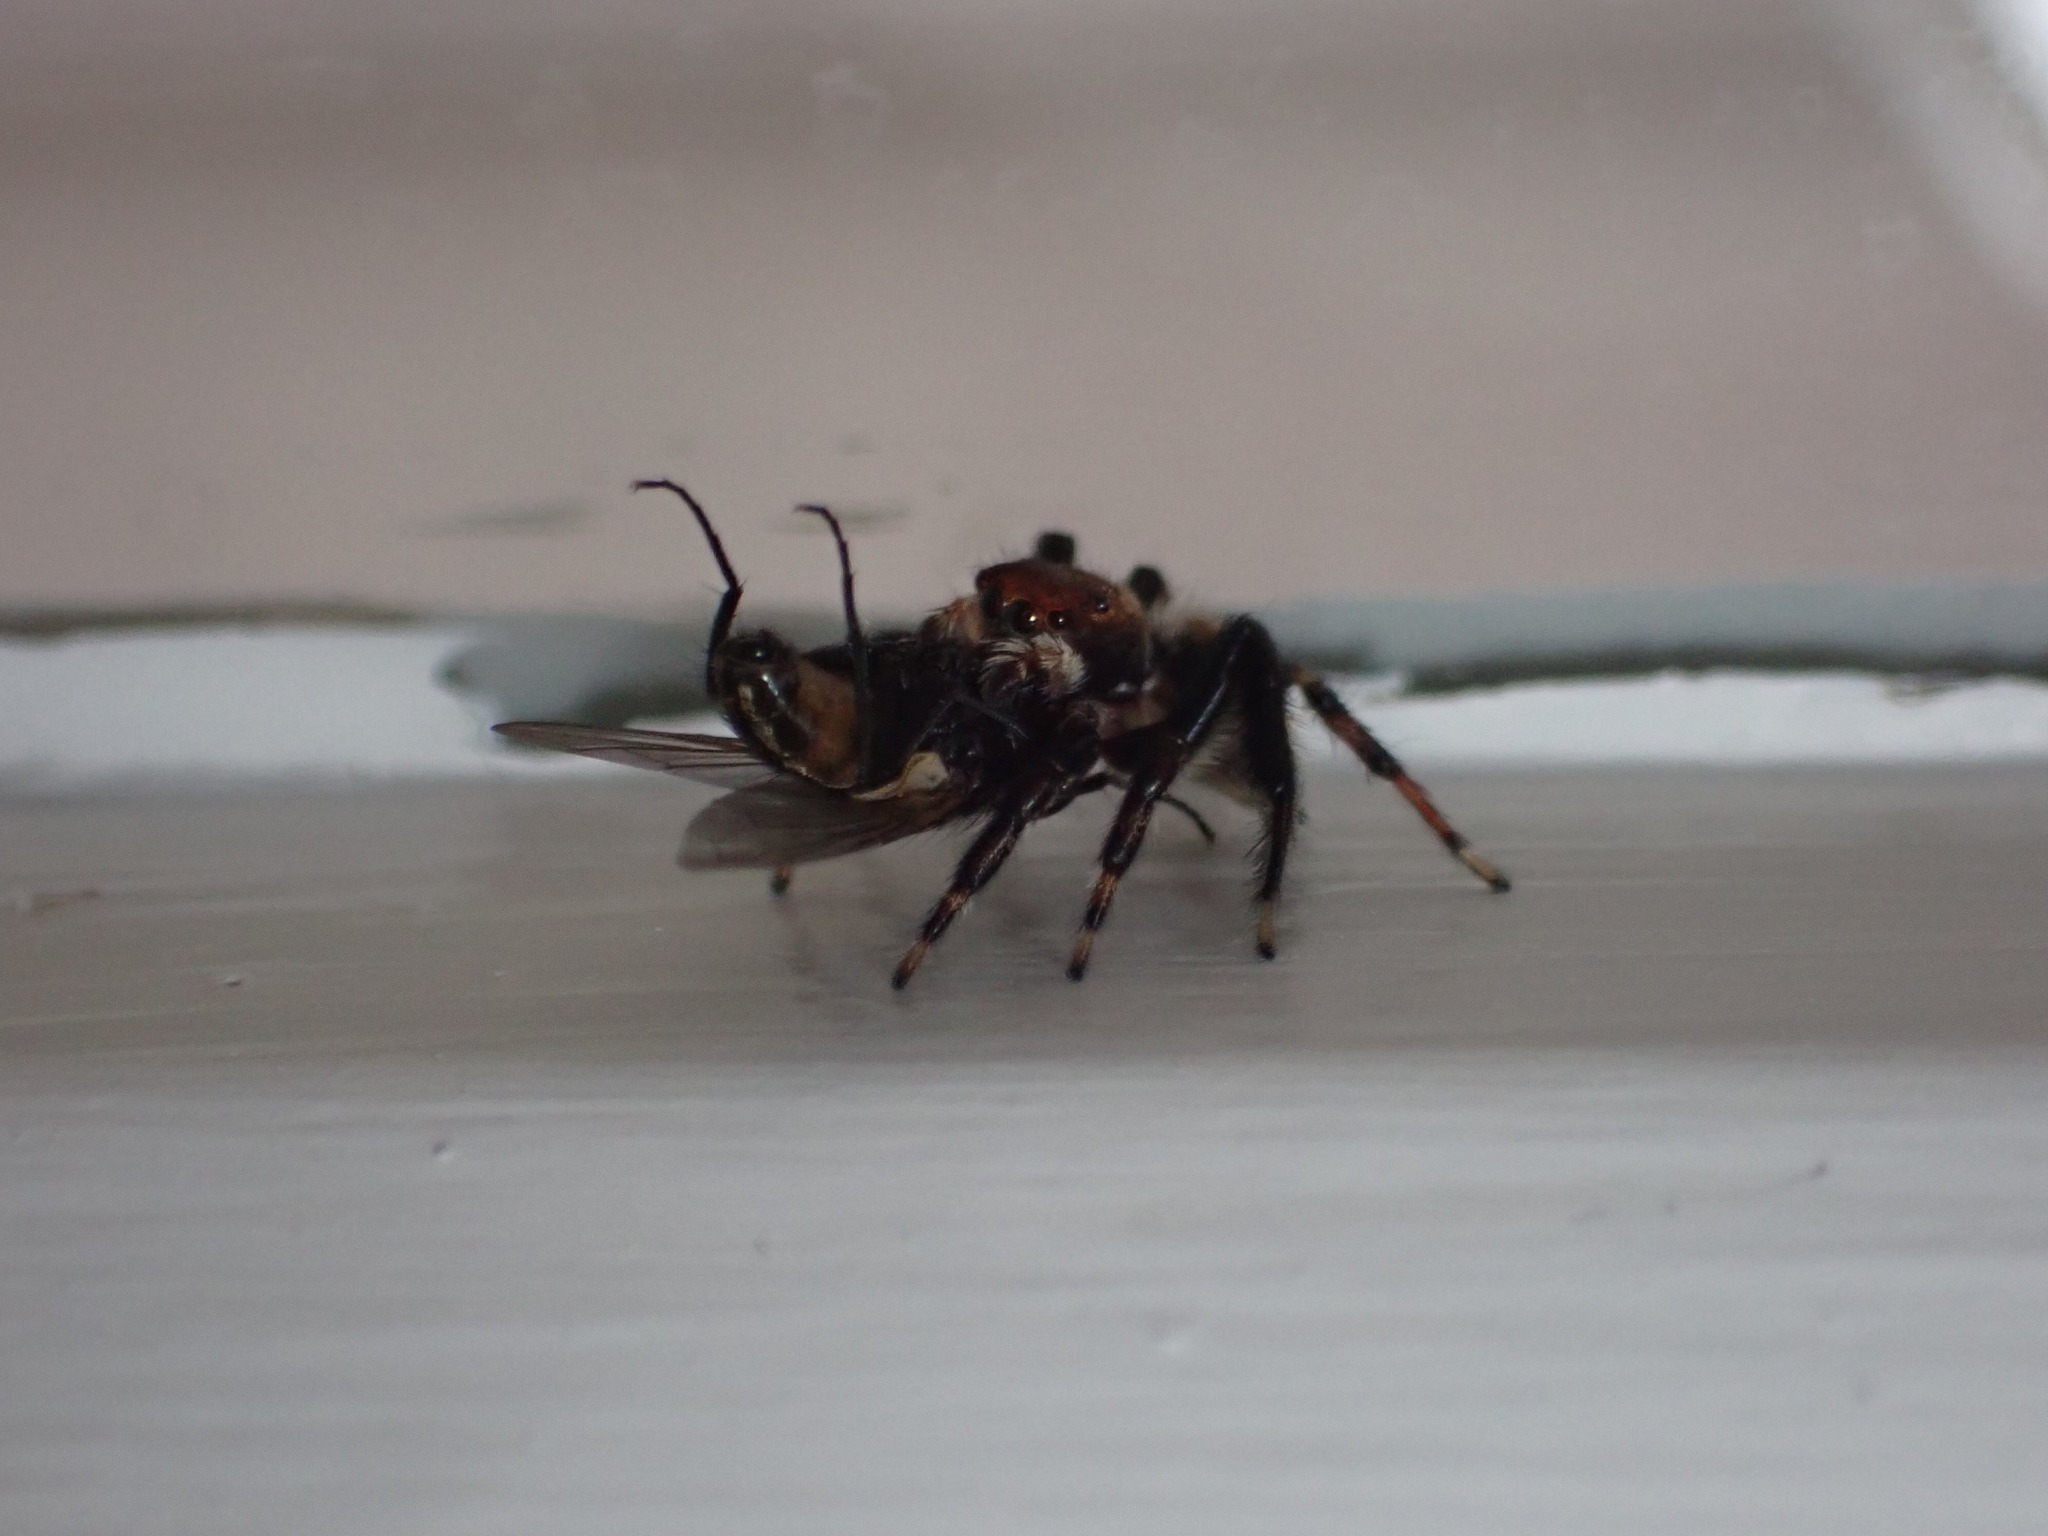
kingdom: Animalia
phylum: Arthropoda
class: Arachnida
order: Araneae
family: Salticidae
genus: Maratus
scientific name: Maratus griseus
